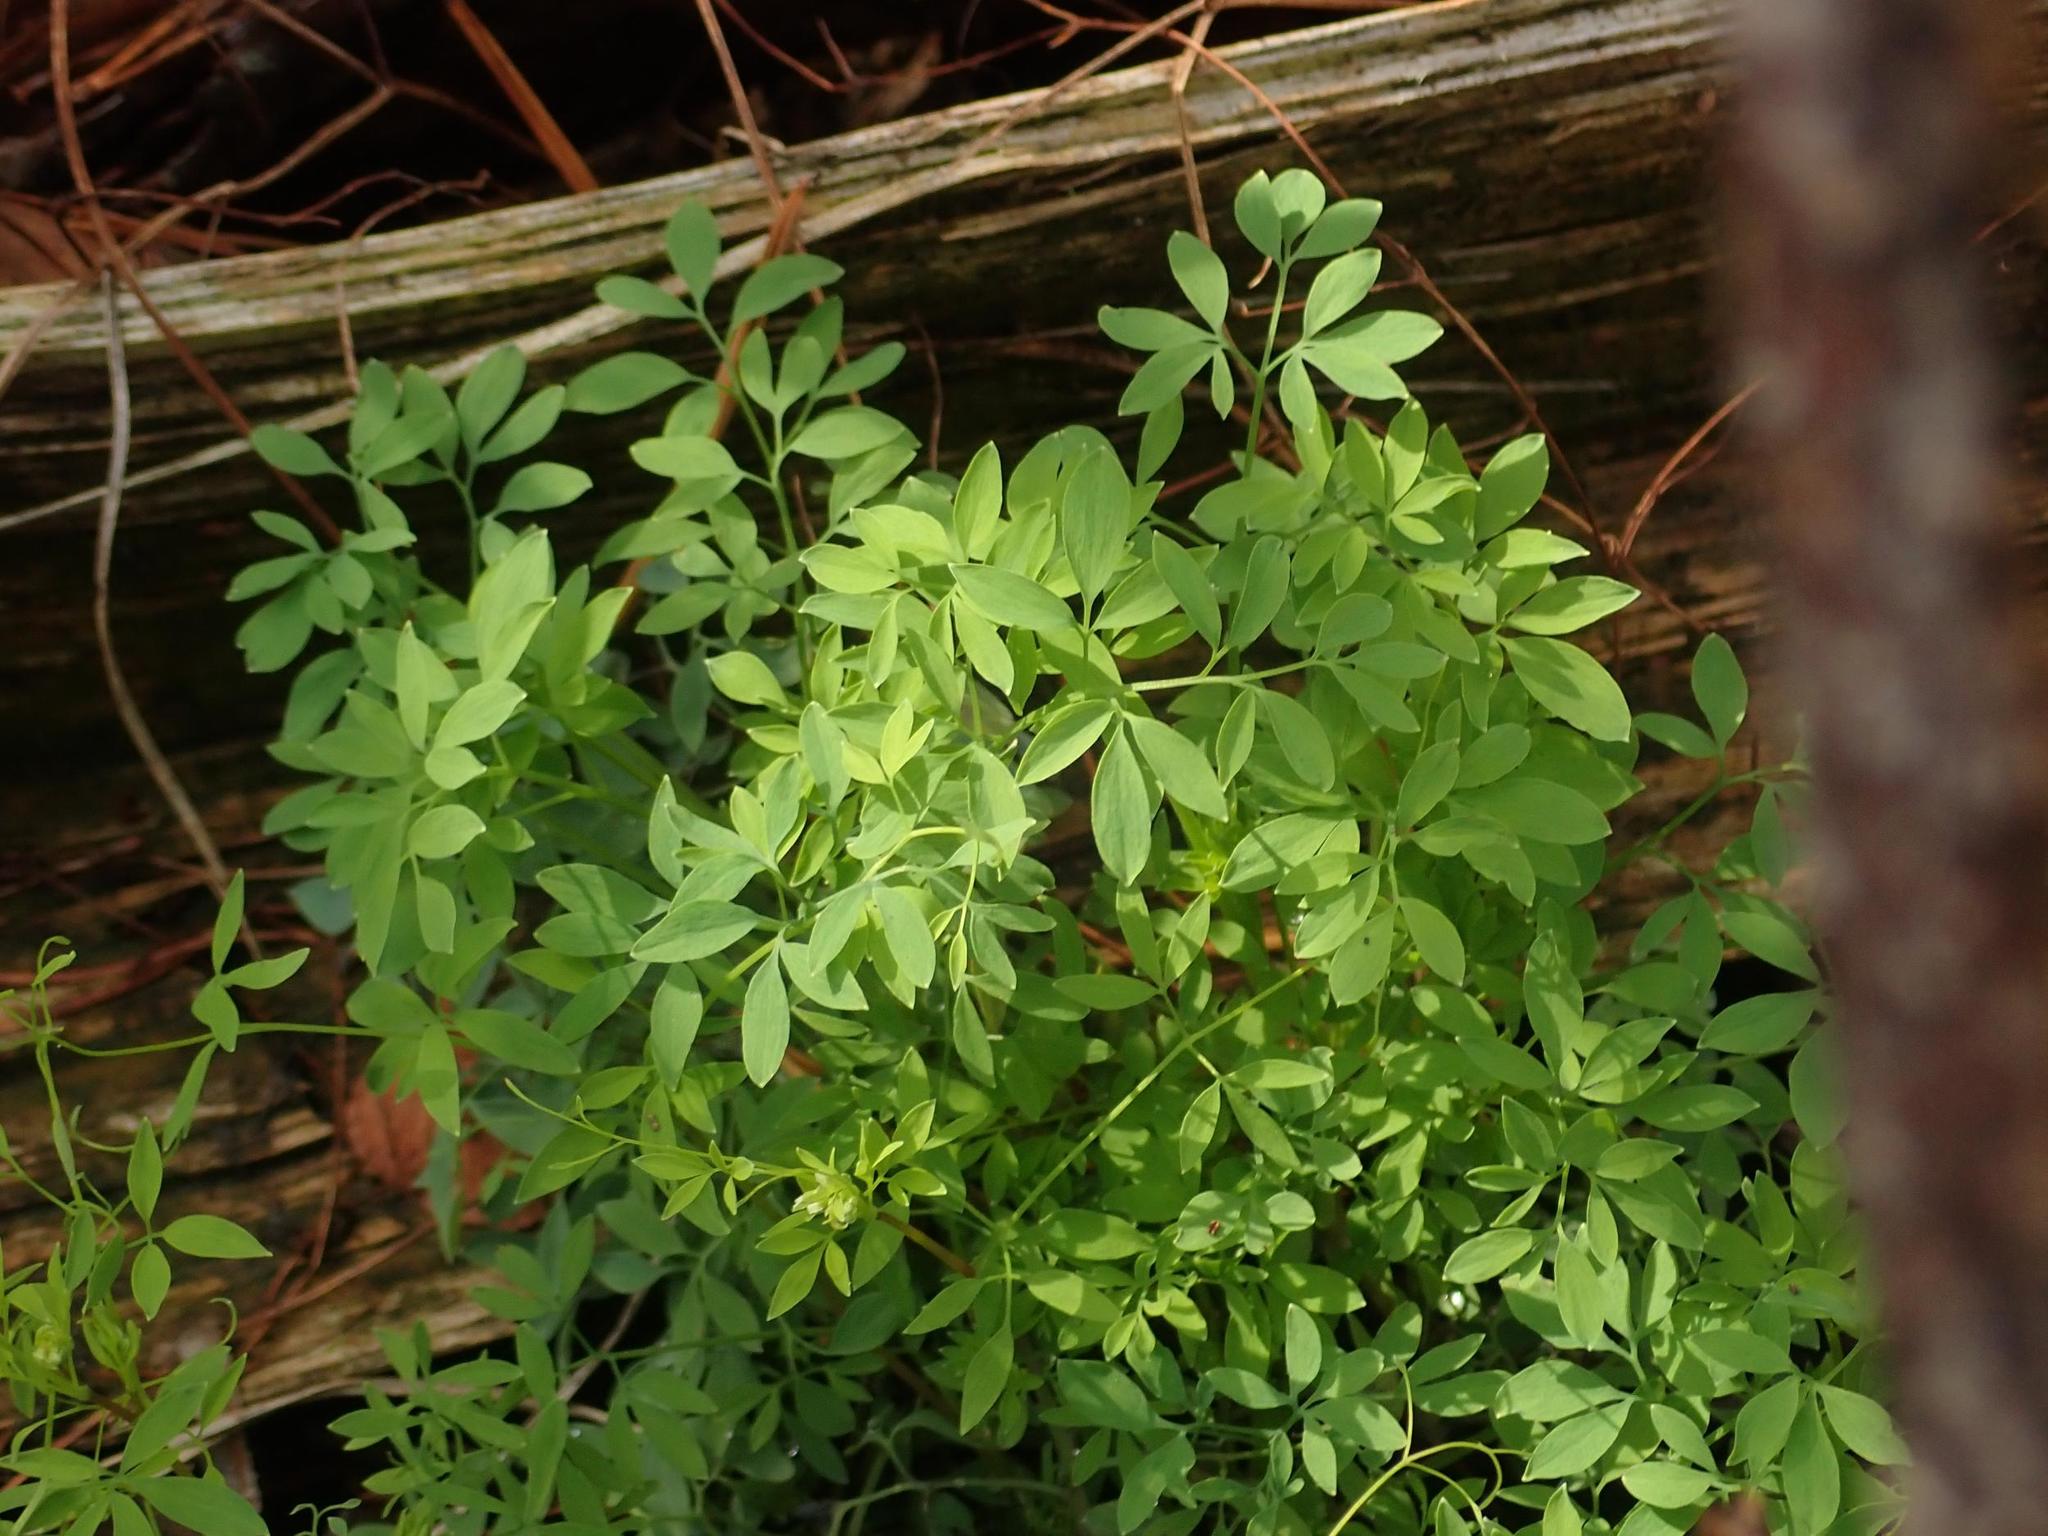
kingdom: Plantae
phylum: Tracheophyta
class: Magnoliopsida
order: Ranunculales
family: Papaveraceae
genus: Ceratocapnos
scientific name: Ceratocapnos claviculata
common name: Climbing corydalis
